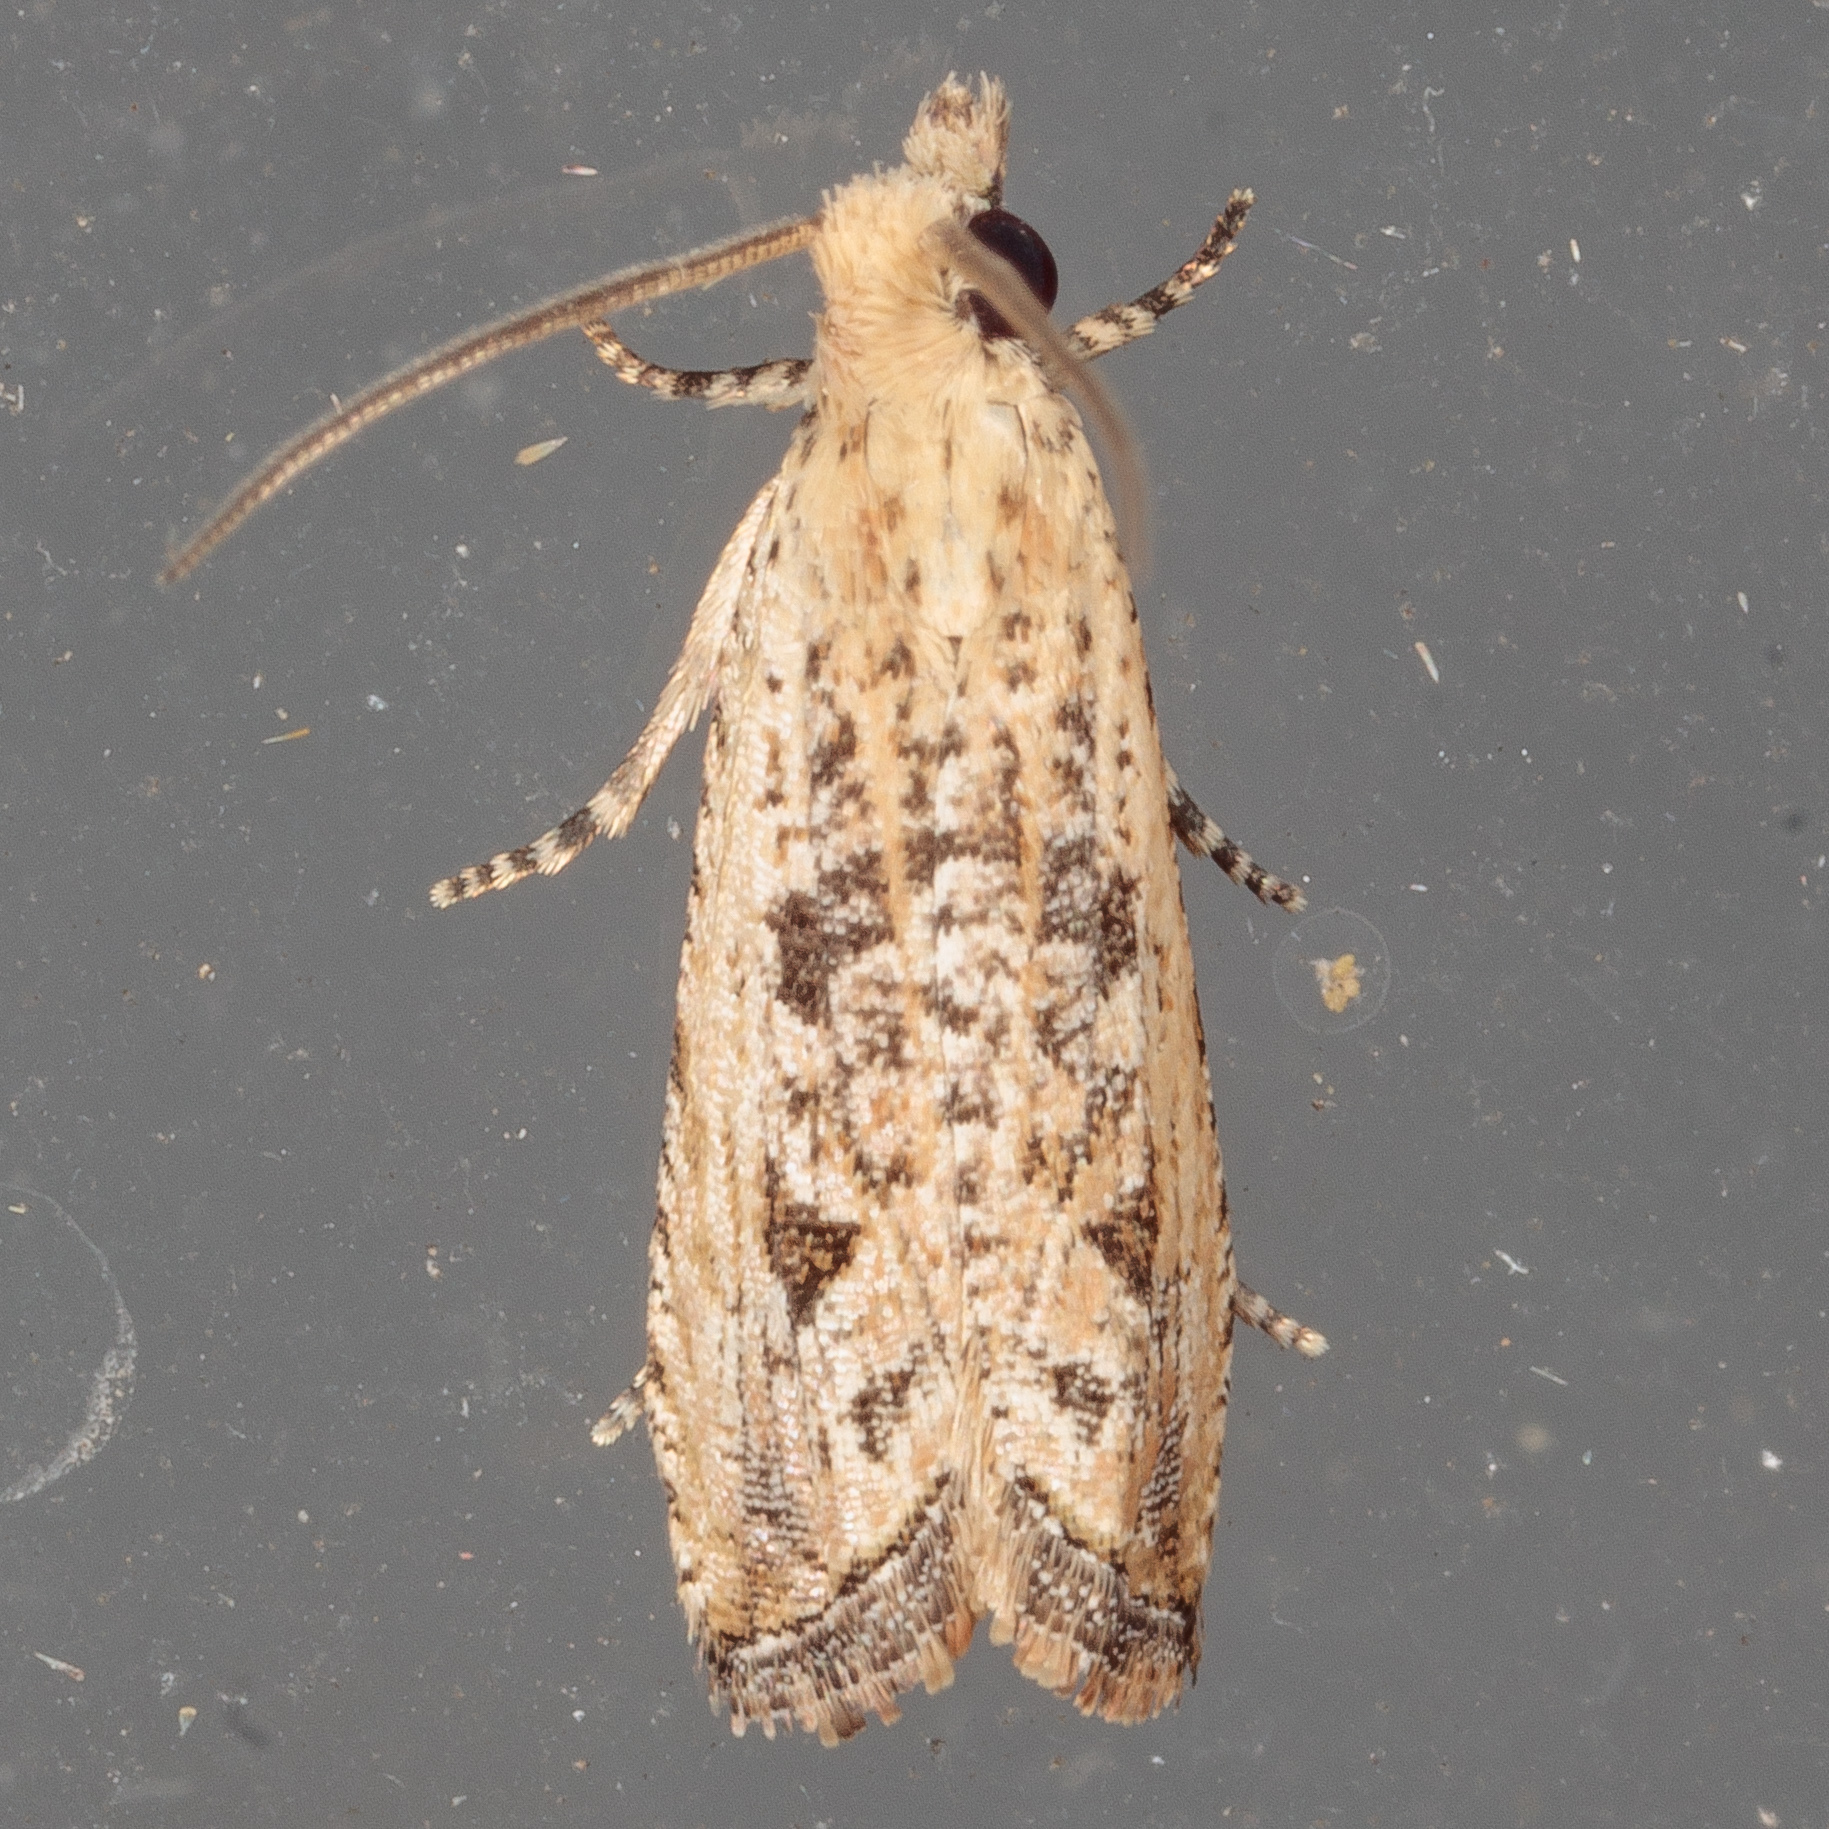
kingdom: Animalia
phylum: Arthropoda
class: Insecta
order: Lepidoptera
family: Tortricidae
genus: Bactra
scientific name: Bactra verutana
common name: Javelin moth
